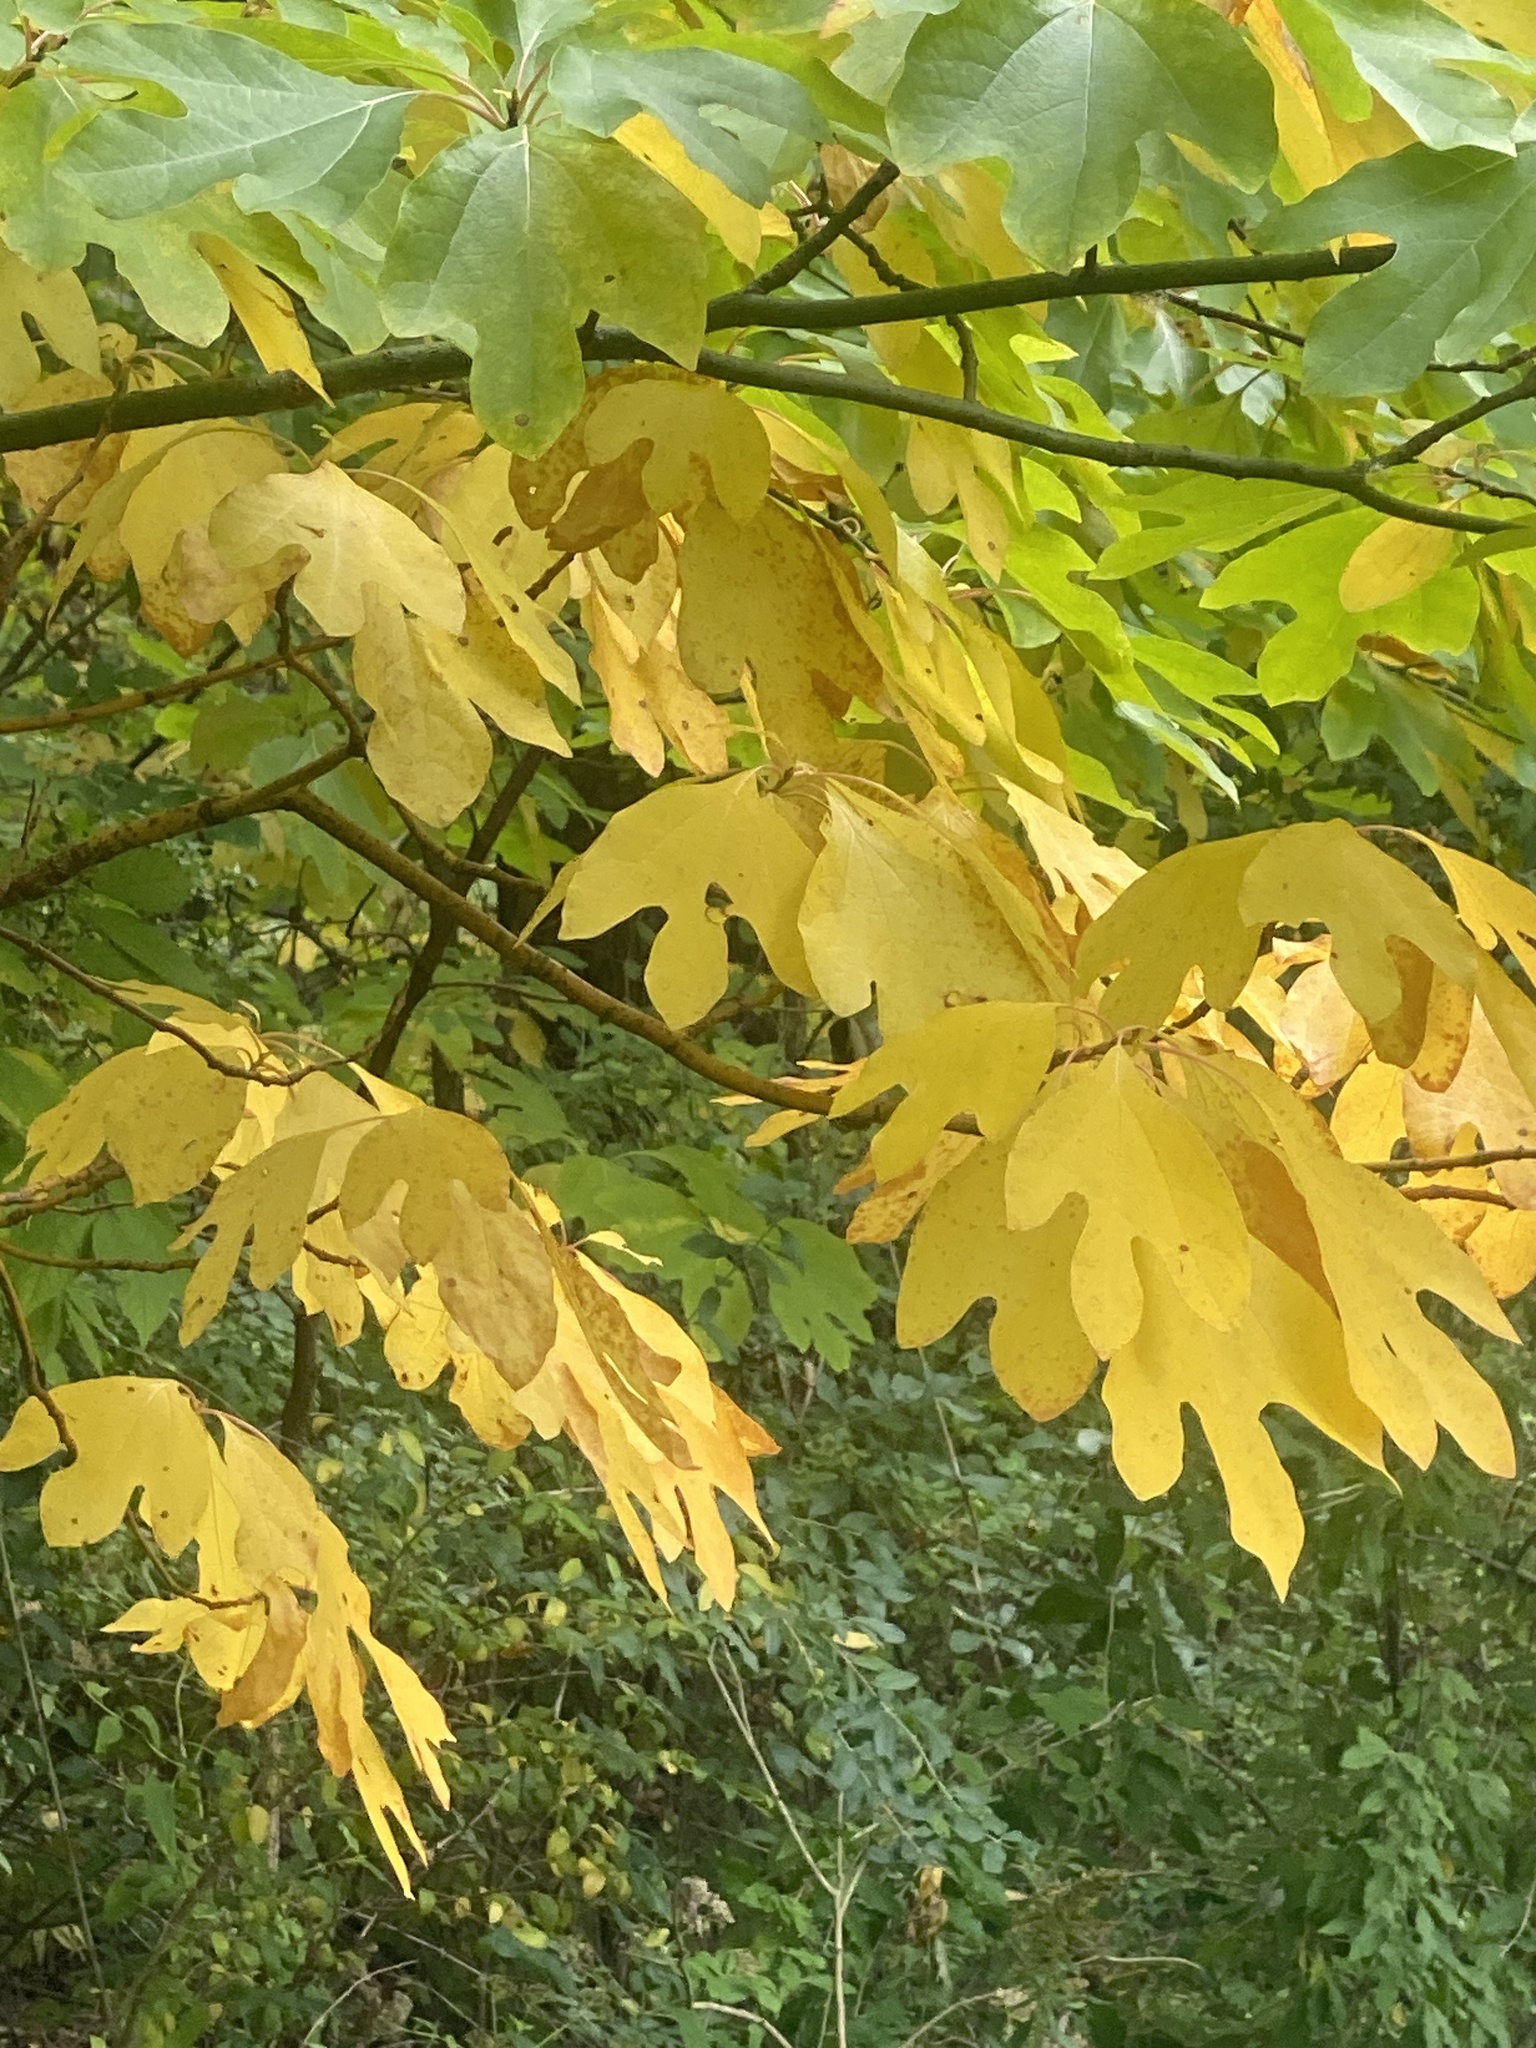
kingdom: Plantae
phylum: Tracheophyta
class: Magnoliopsida
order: Laurales
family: Lauraceae
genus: Sassafras
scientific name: Sassafras albidum
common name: Sassafras
